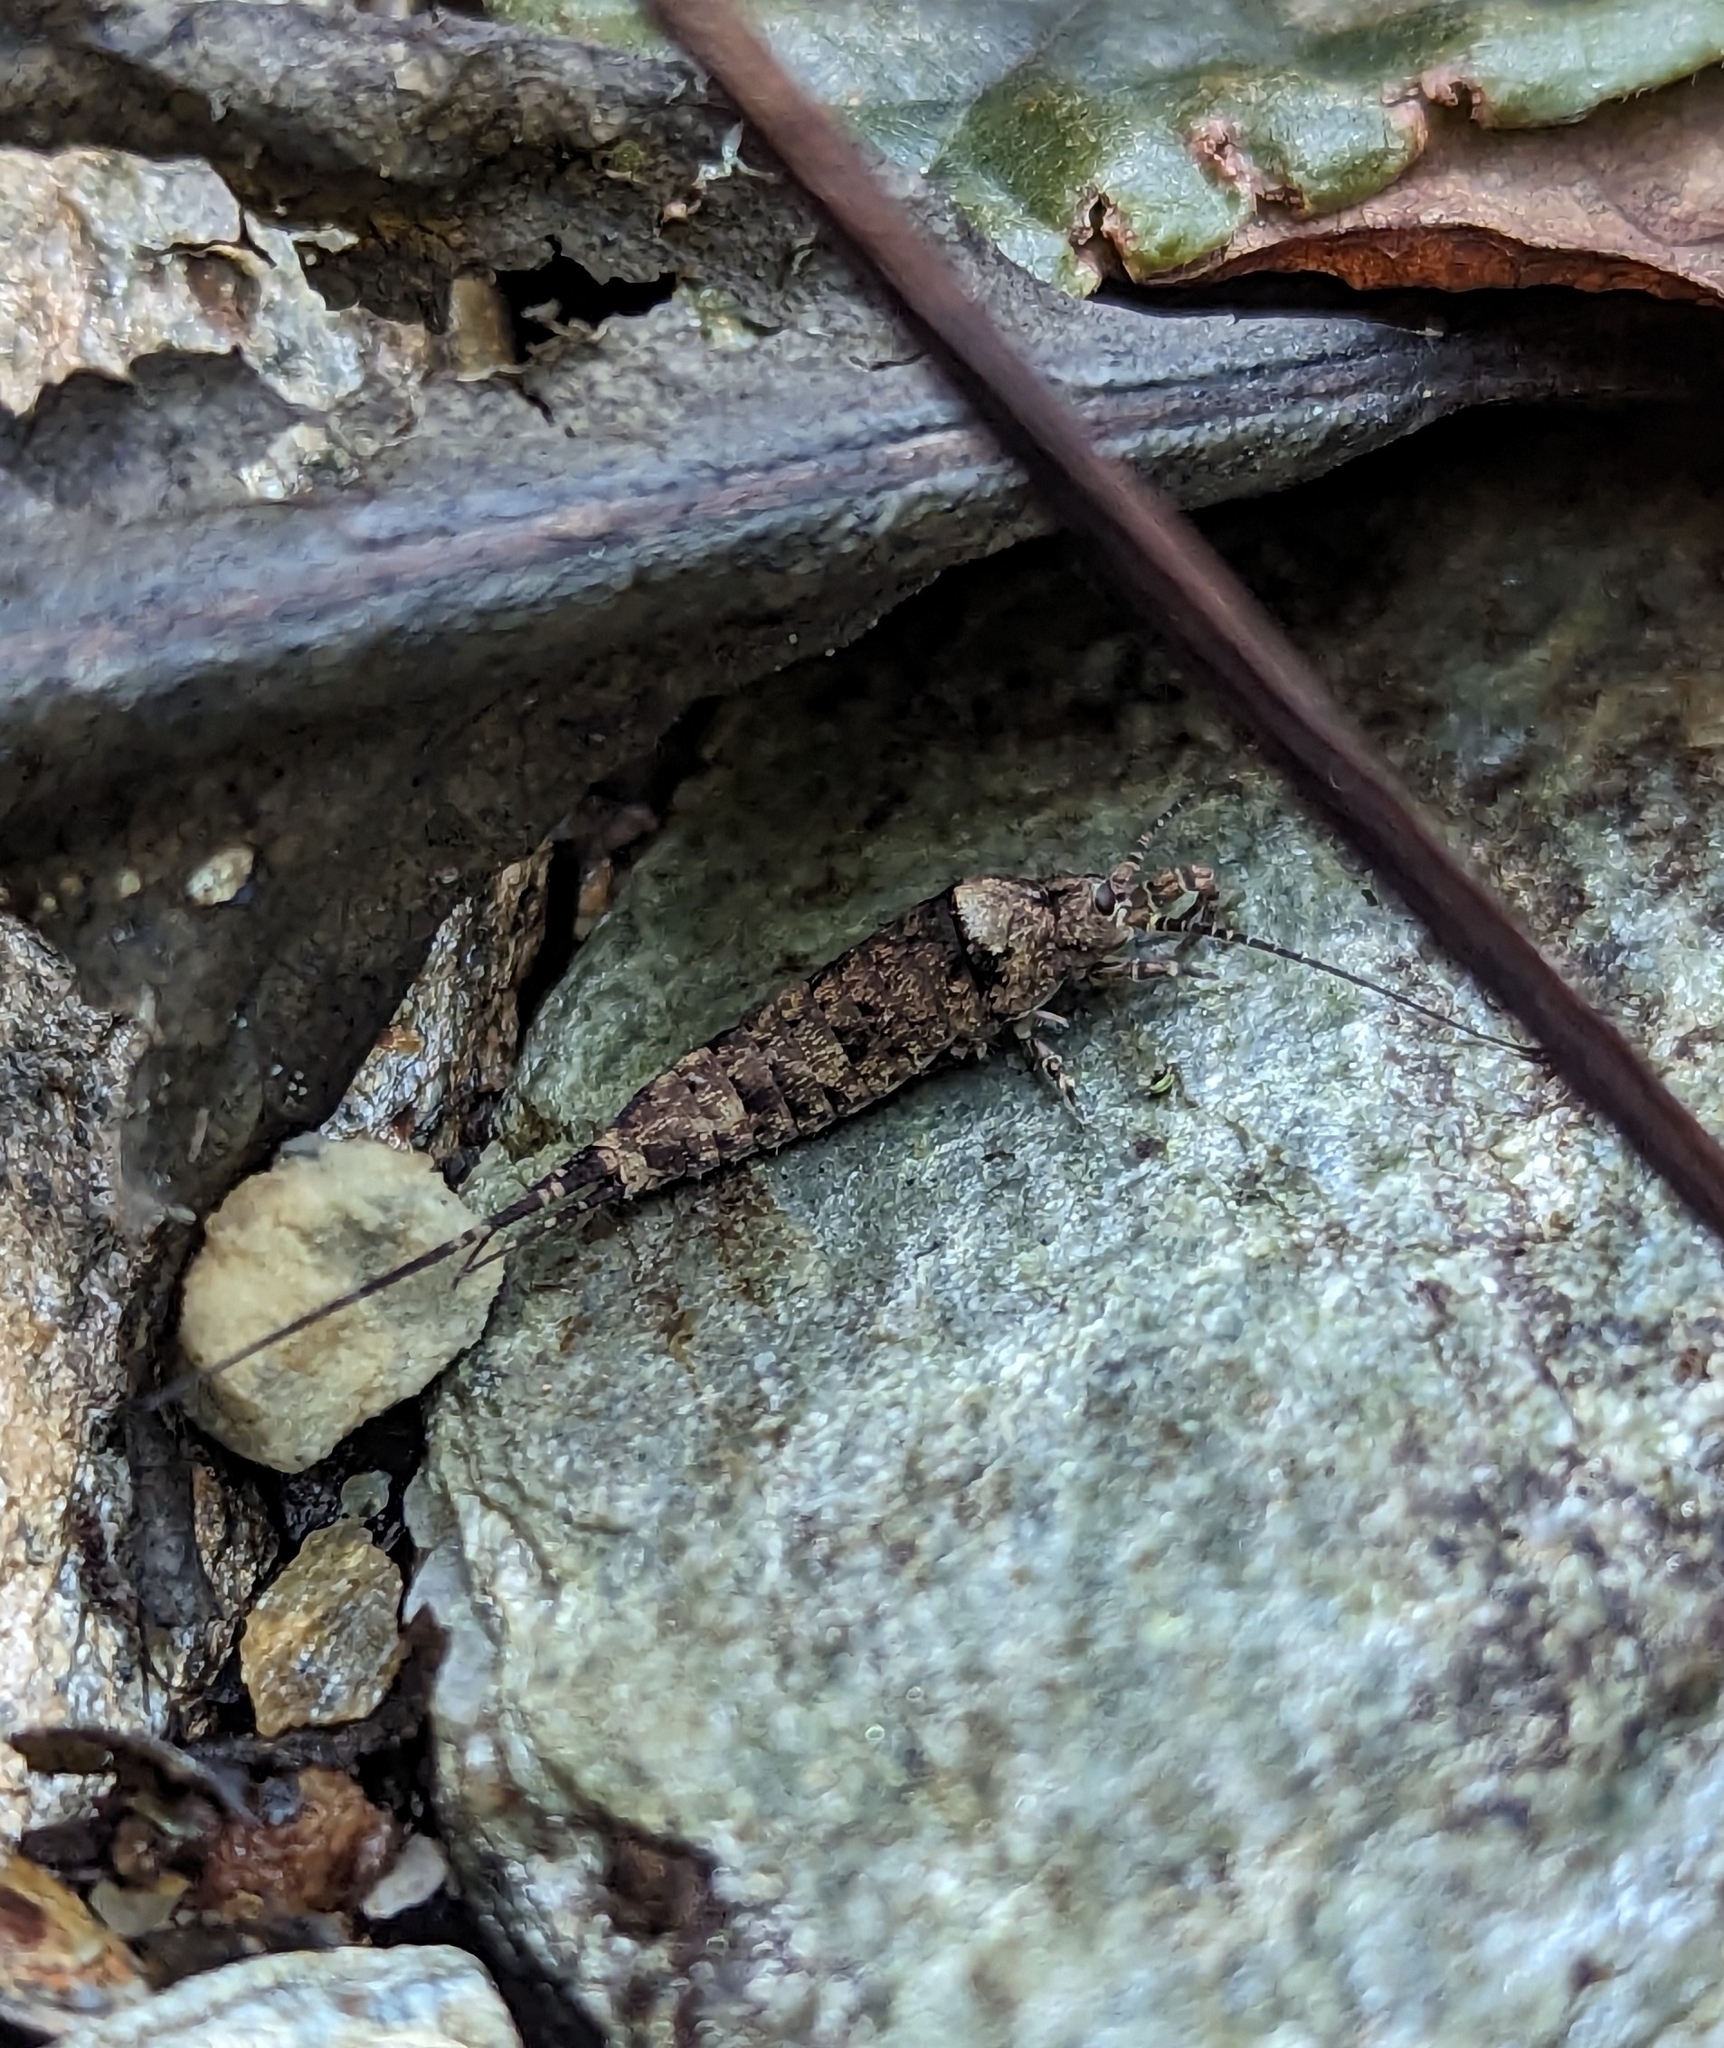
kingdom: Animalia
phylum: Arthropoda
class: Insecta
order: Archaeognatha
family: Machilidae
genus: Trigoniophthalmus
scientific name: Trigoniophthalmus alternatus
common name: Jumping bristletail
